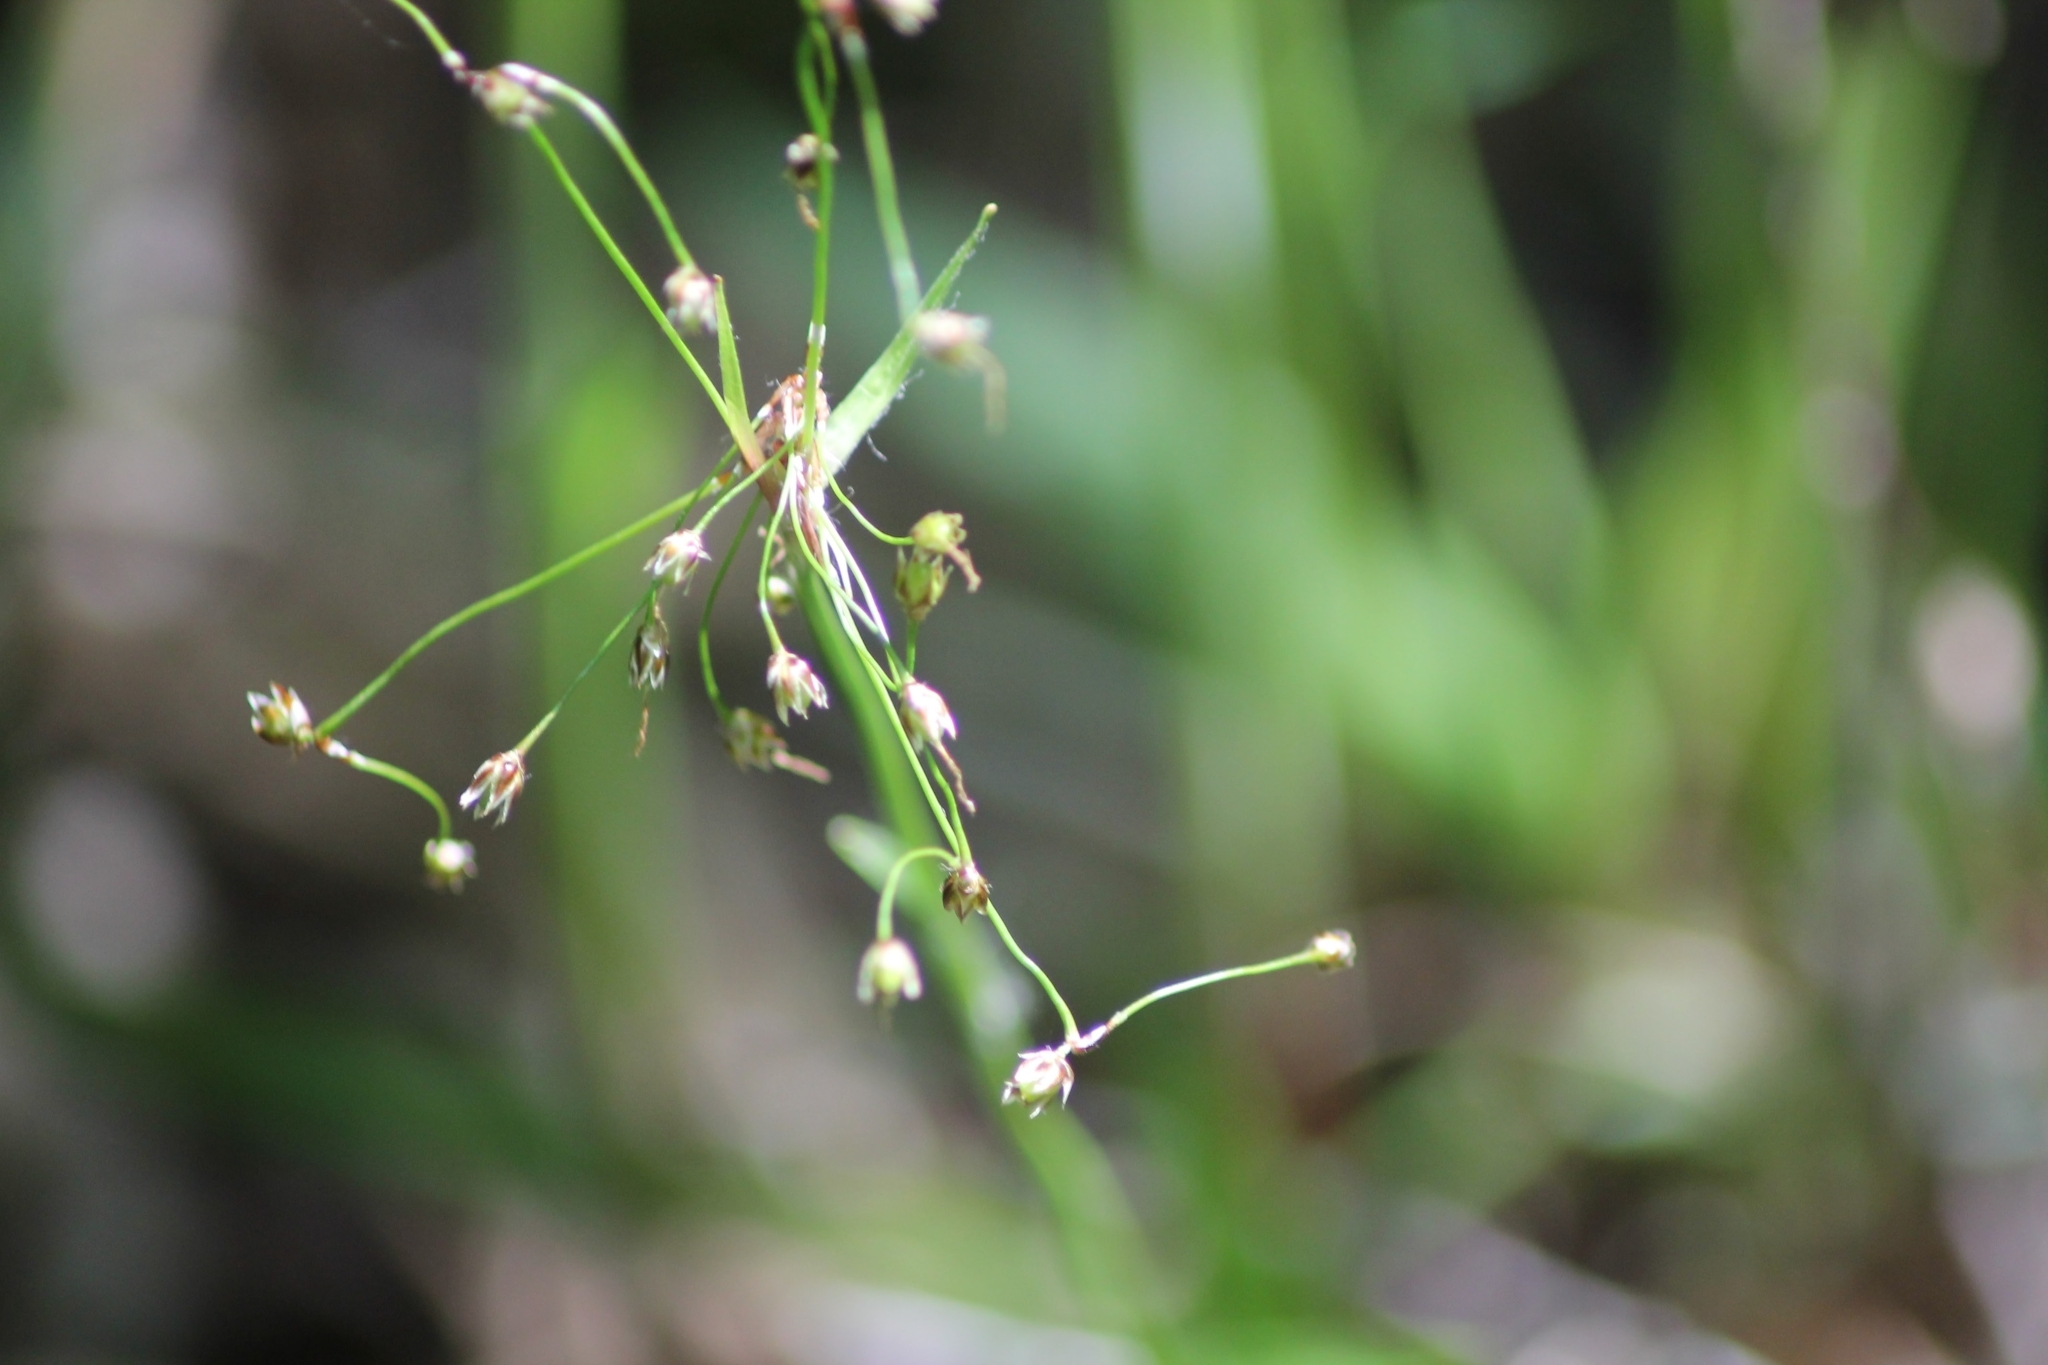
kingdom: Plantae
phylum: Tracheophyta
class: Liliopsida
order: Poales
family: Juncaceae
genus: Luzula
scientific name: Luzula pilosa
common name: Hairy wood-rush
